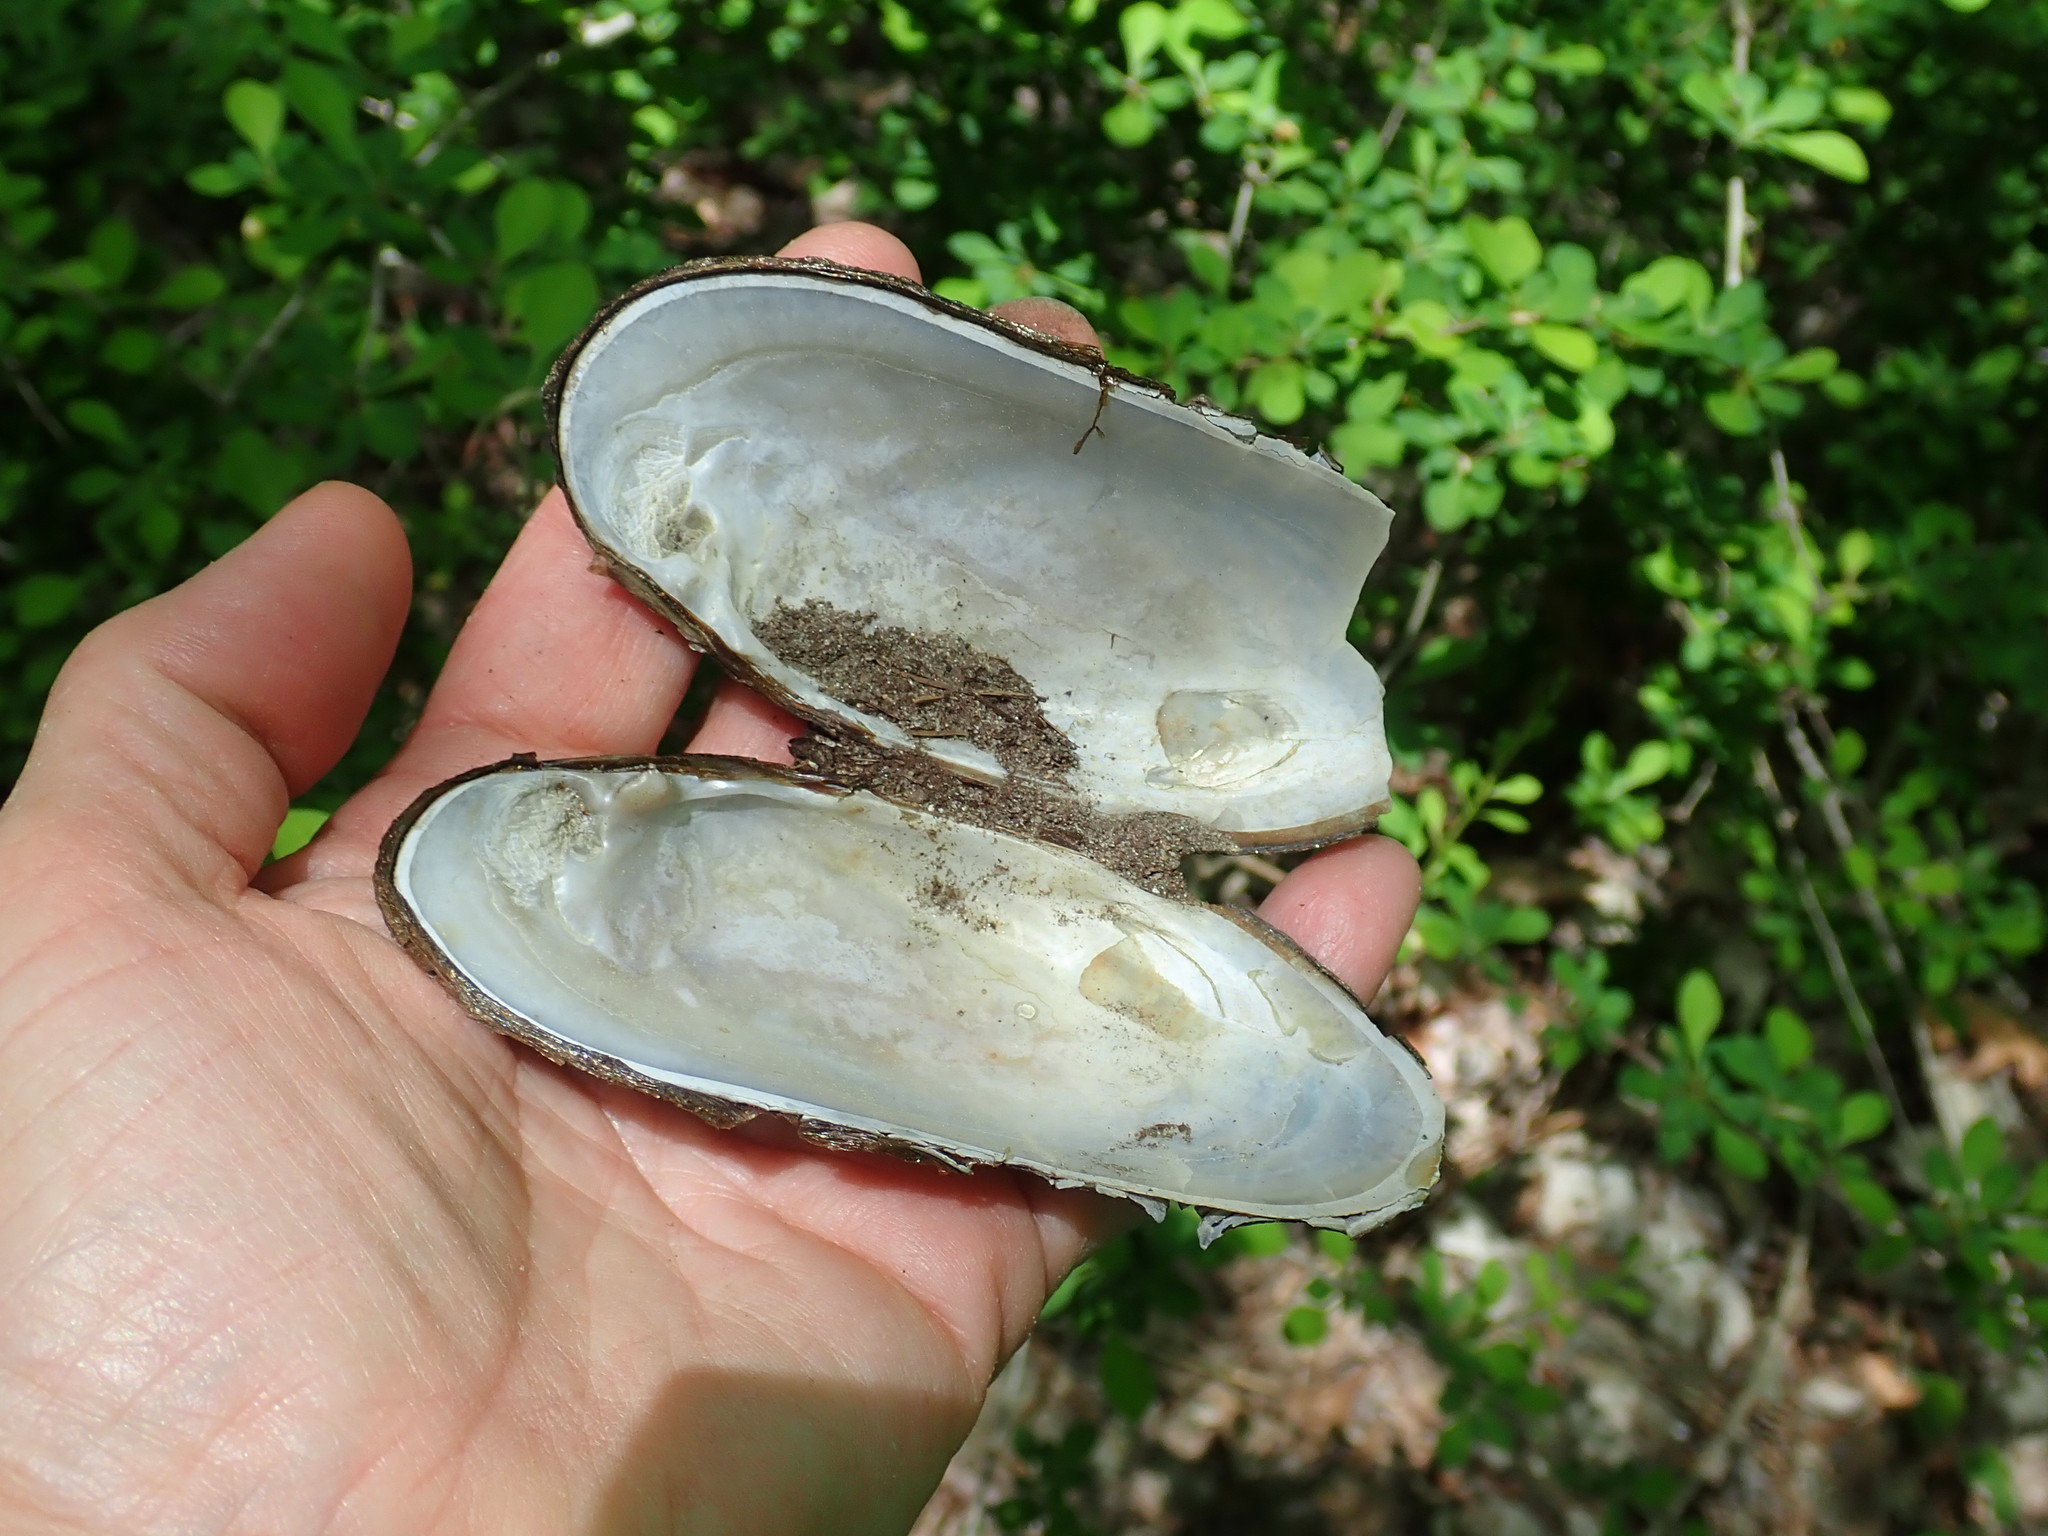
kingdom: Animalia
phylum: Mollusca
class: Bivalvia
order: Unionida
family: Margaritiferidae
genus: Margaritifera
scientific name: Margaritifera margaritifera
